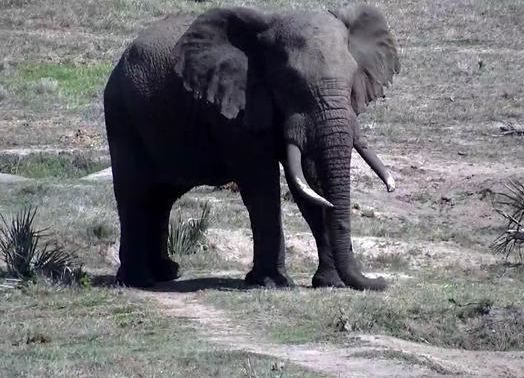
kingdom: Animalia
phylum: Chordata
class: Mammalia
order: Proboscidea
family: Elephantidae
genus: Loxodonta
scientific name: Loxodonta africana
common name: African elephant
